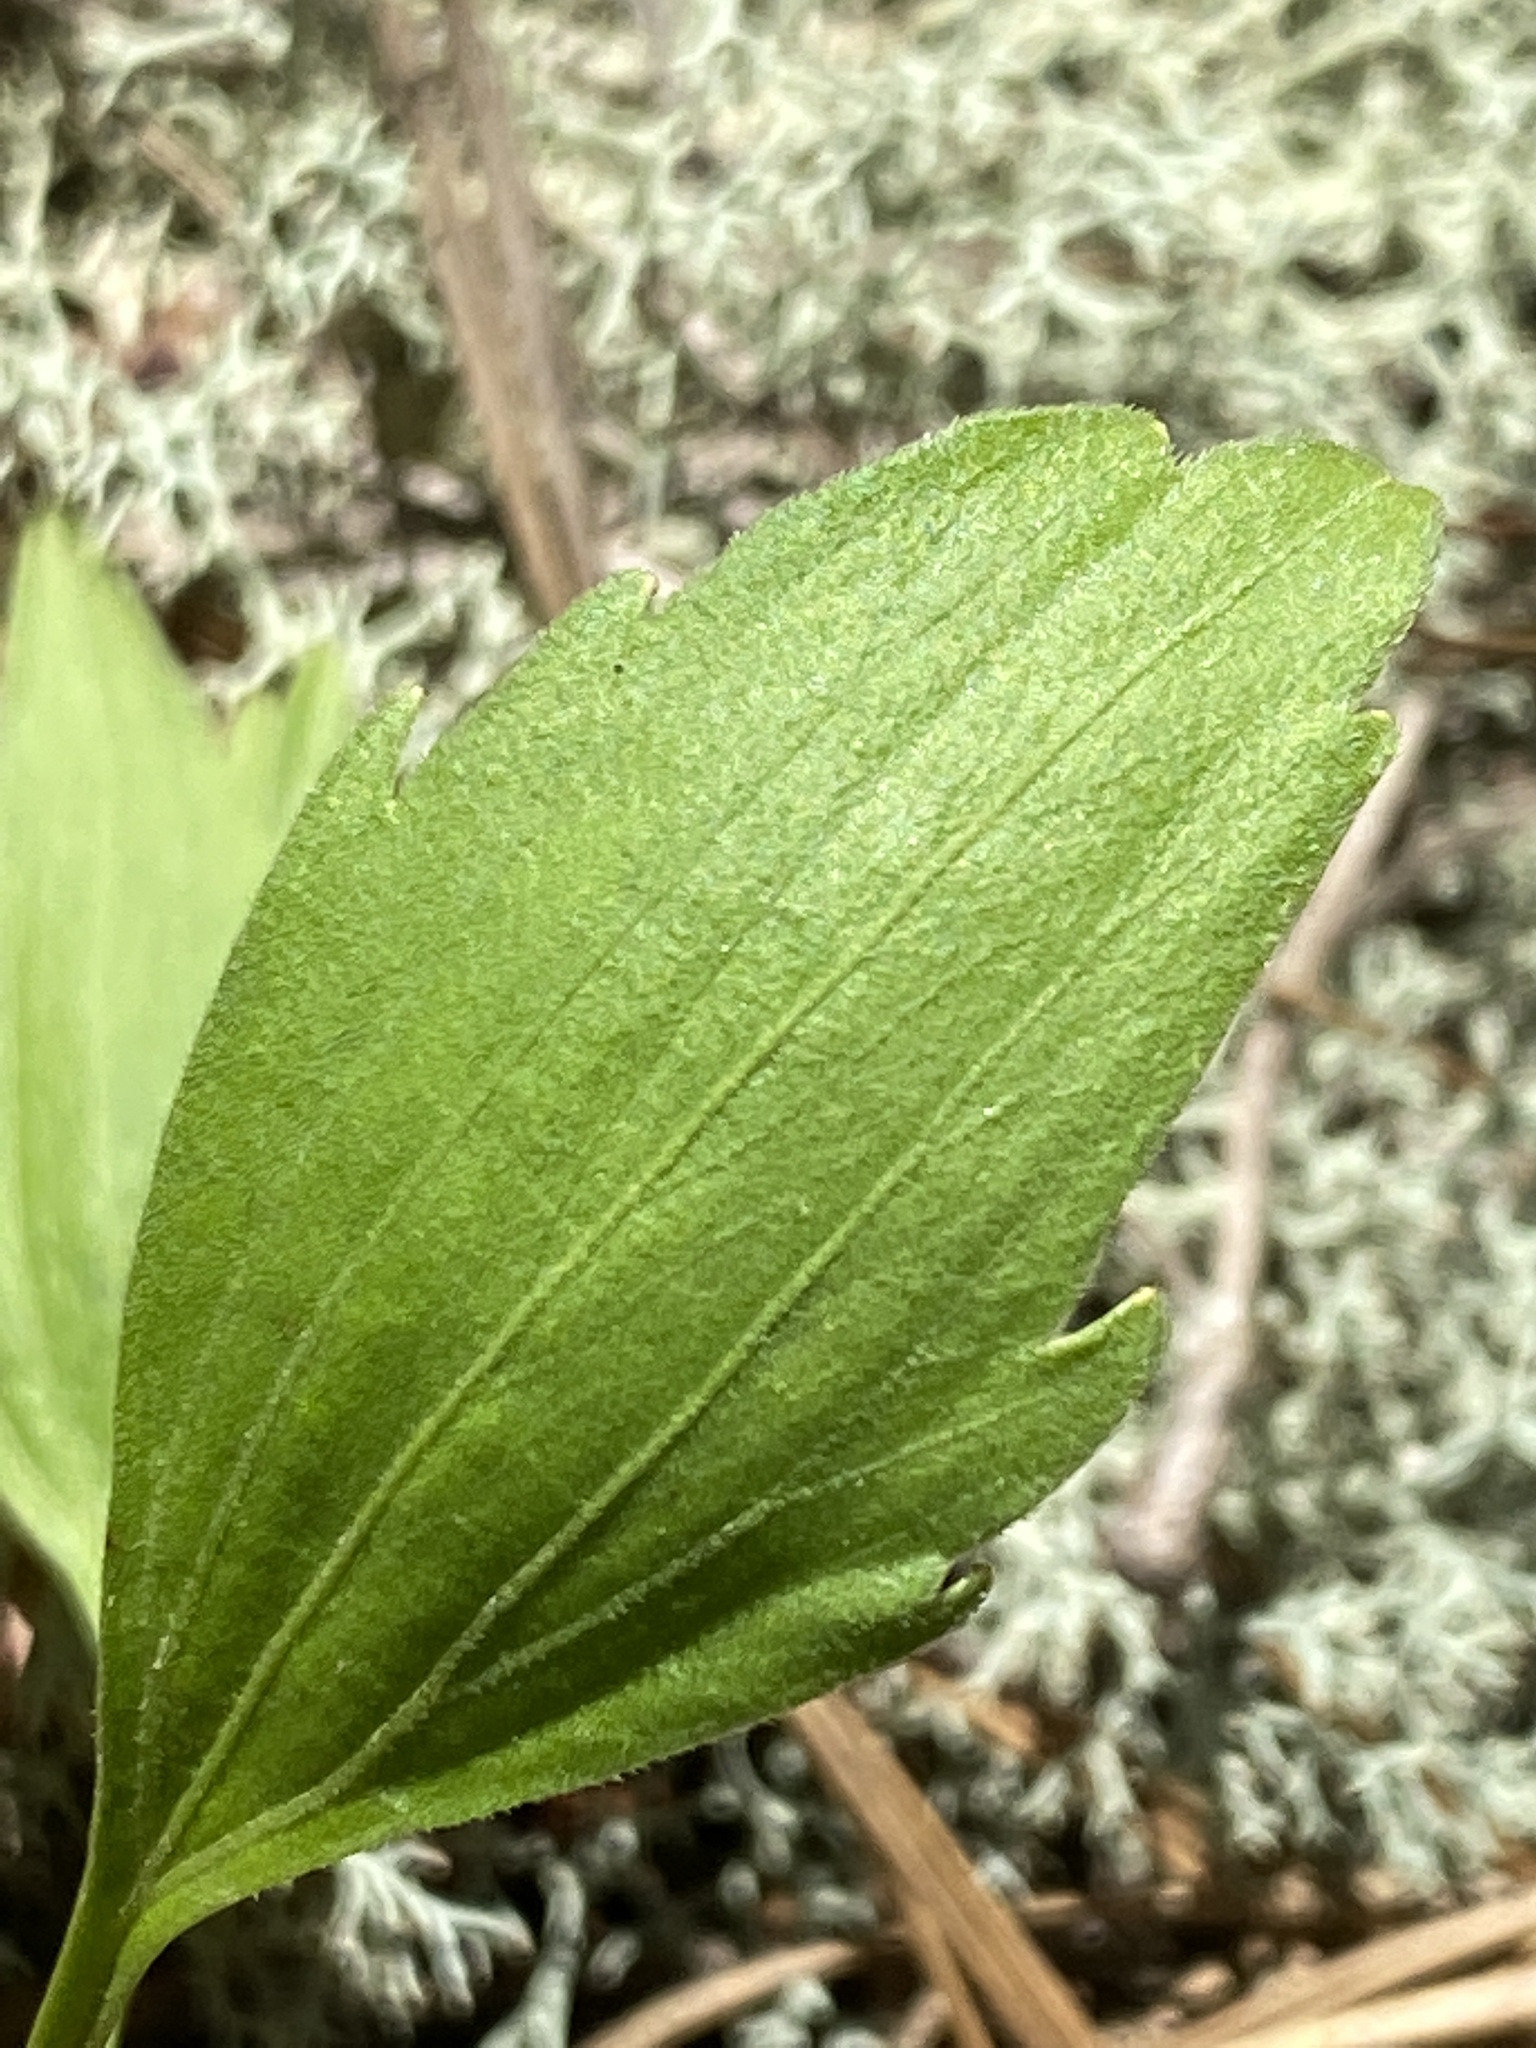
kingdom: Plantae
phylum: Tracheophyta
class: Magnoliopsida
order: Malpighiales
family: Violaceae
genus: Viola
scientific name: Viola pedata
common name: Pansy violet
